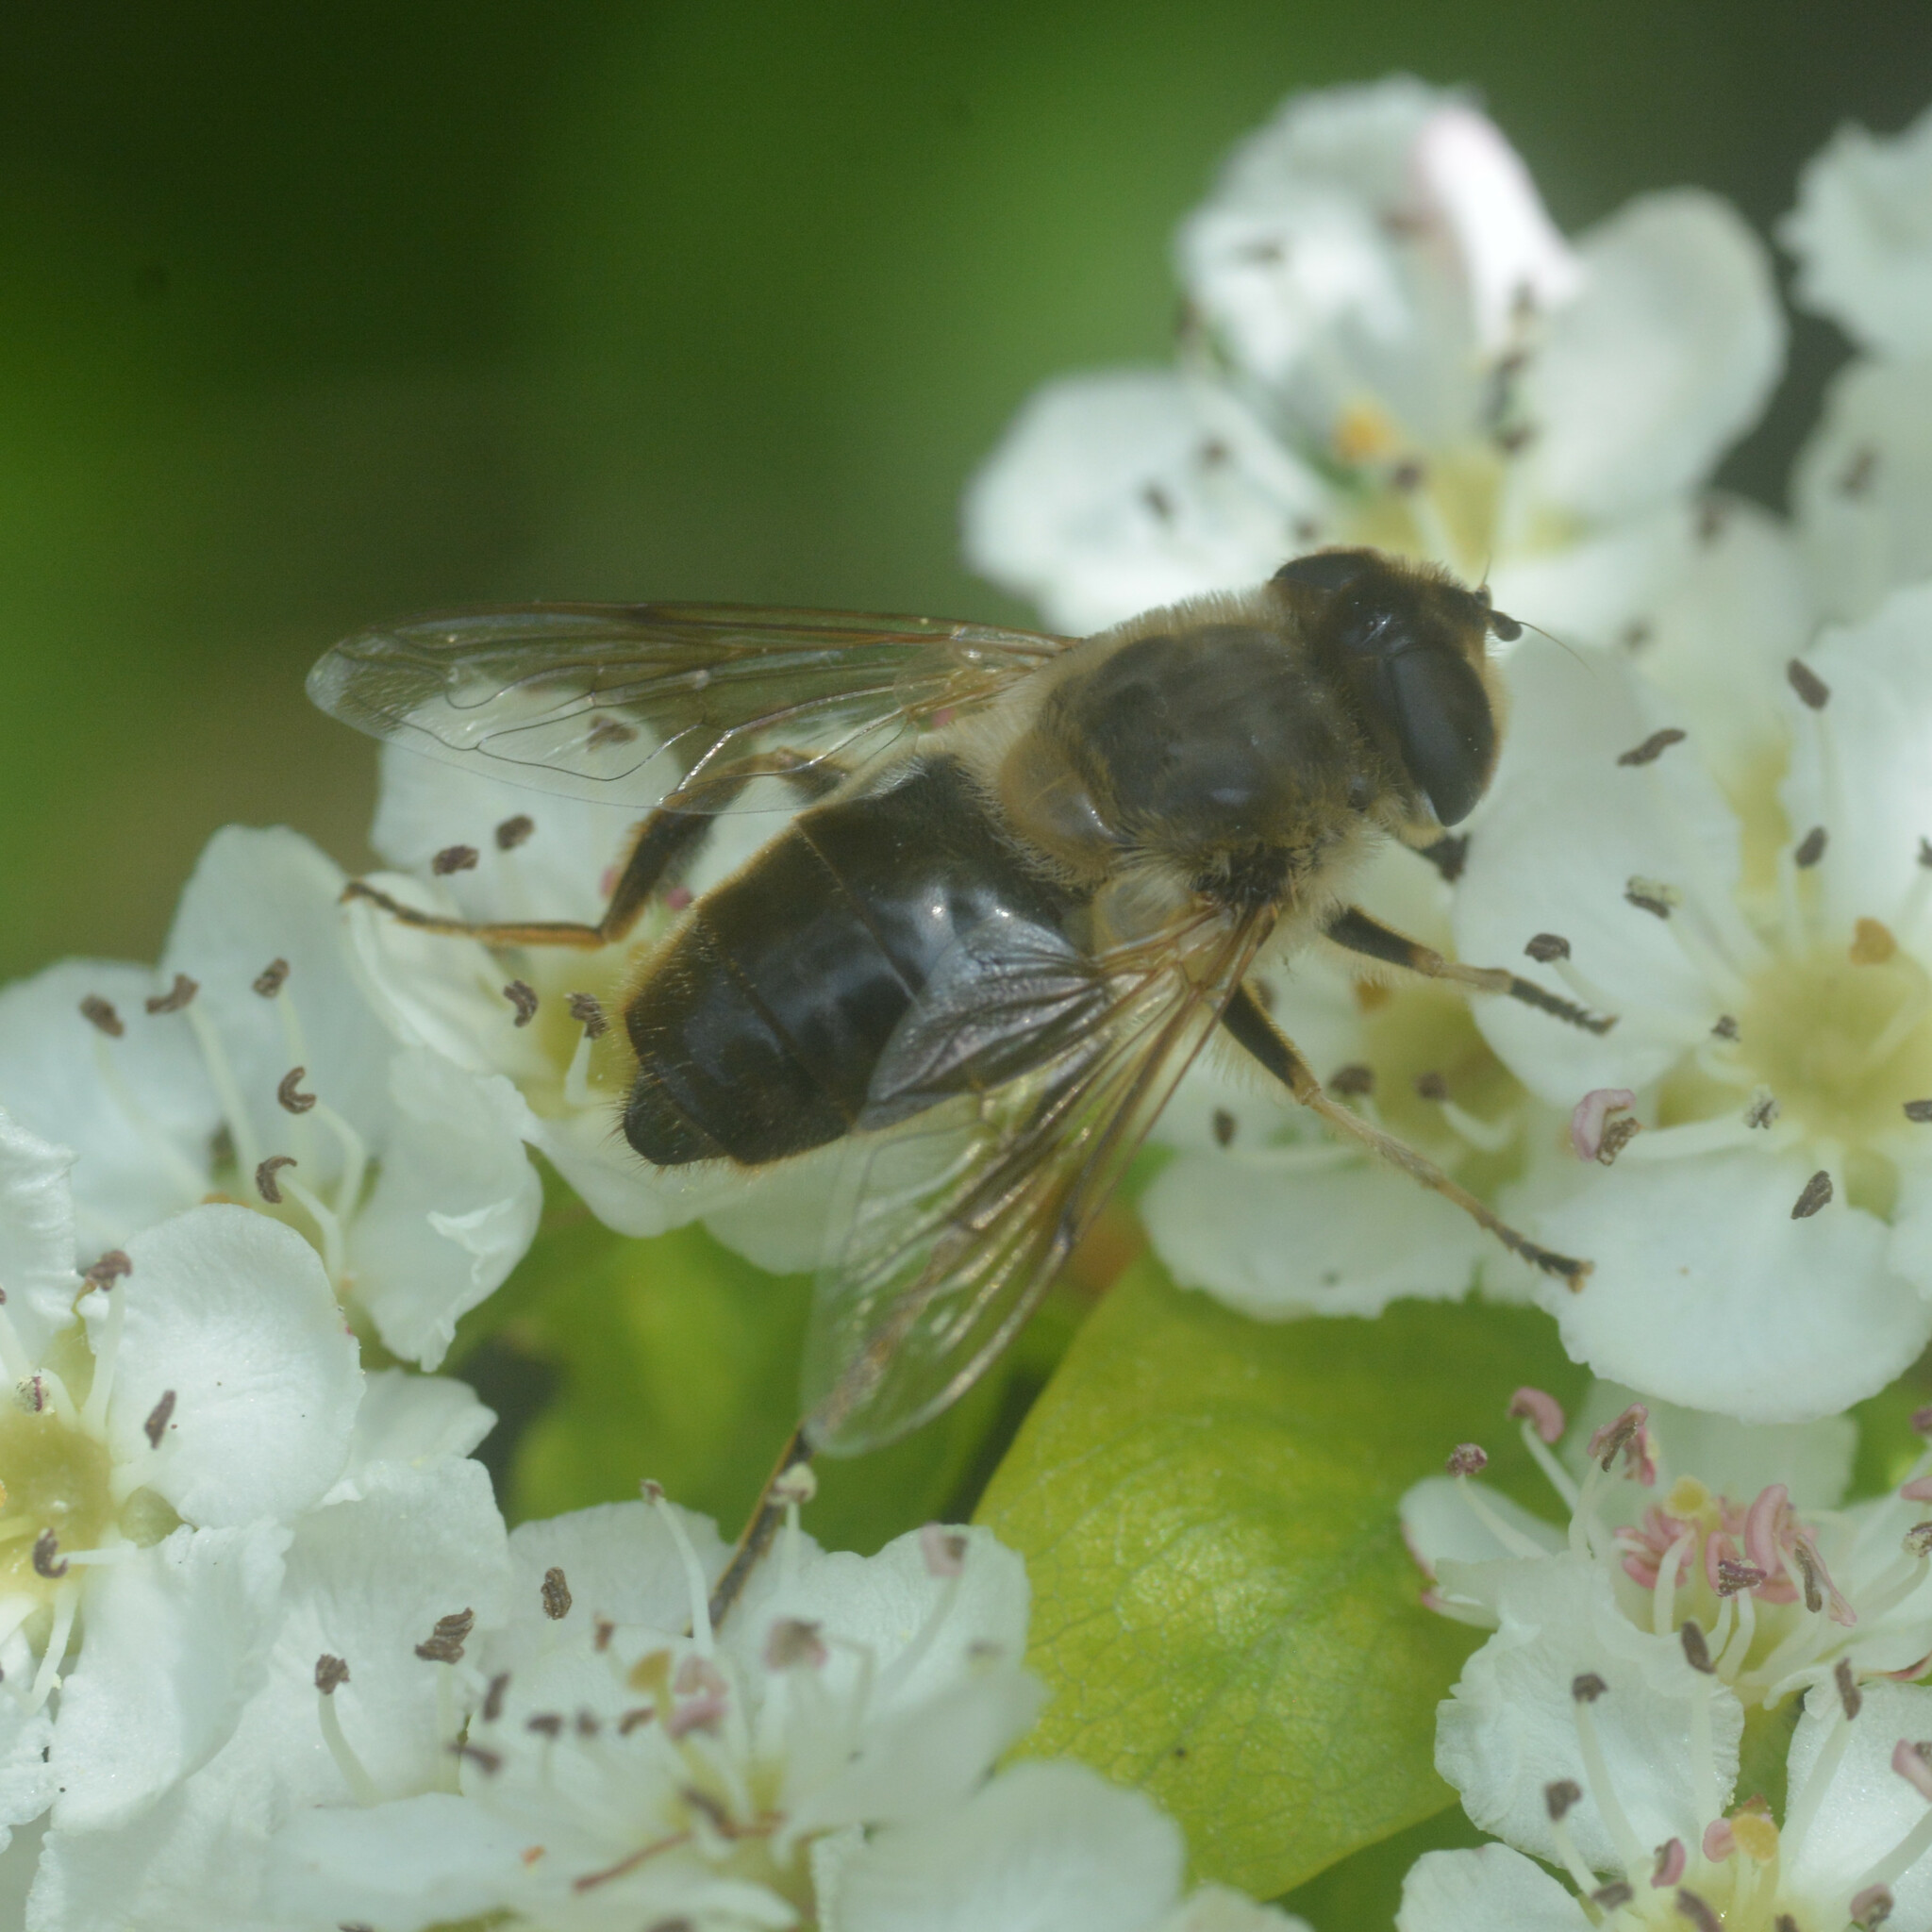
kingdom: Animalia
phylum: Arthropoda
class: Insecta
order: Diptera
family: Syrphidae
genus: Eristalis
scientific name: Eristalis tenax
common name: Drone fly
